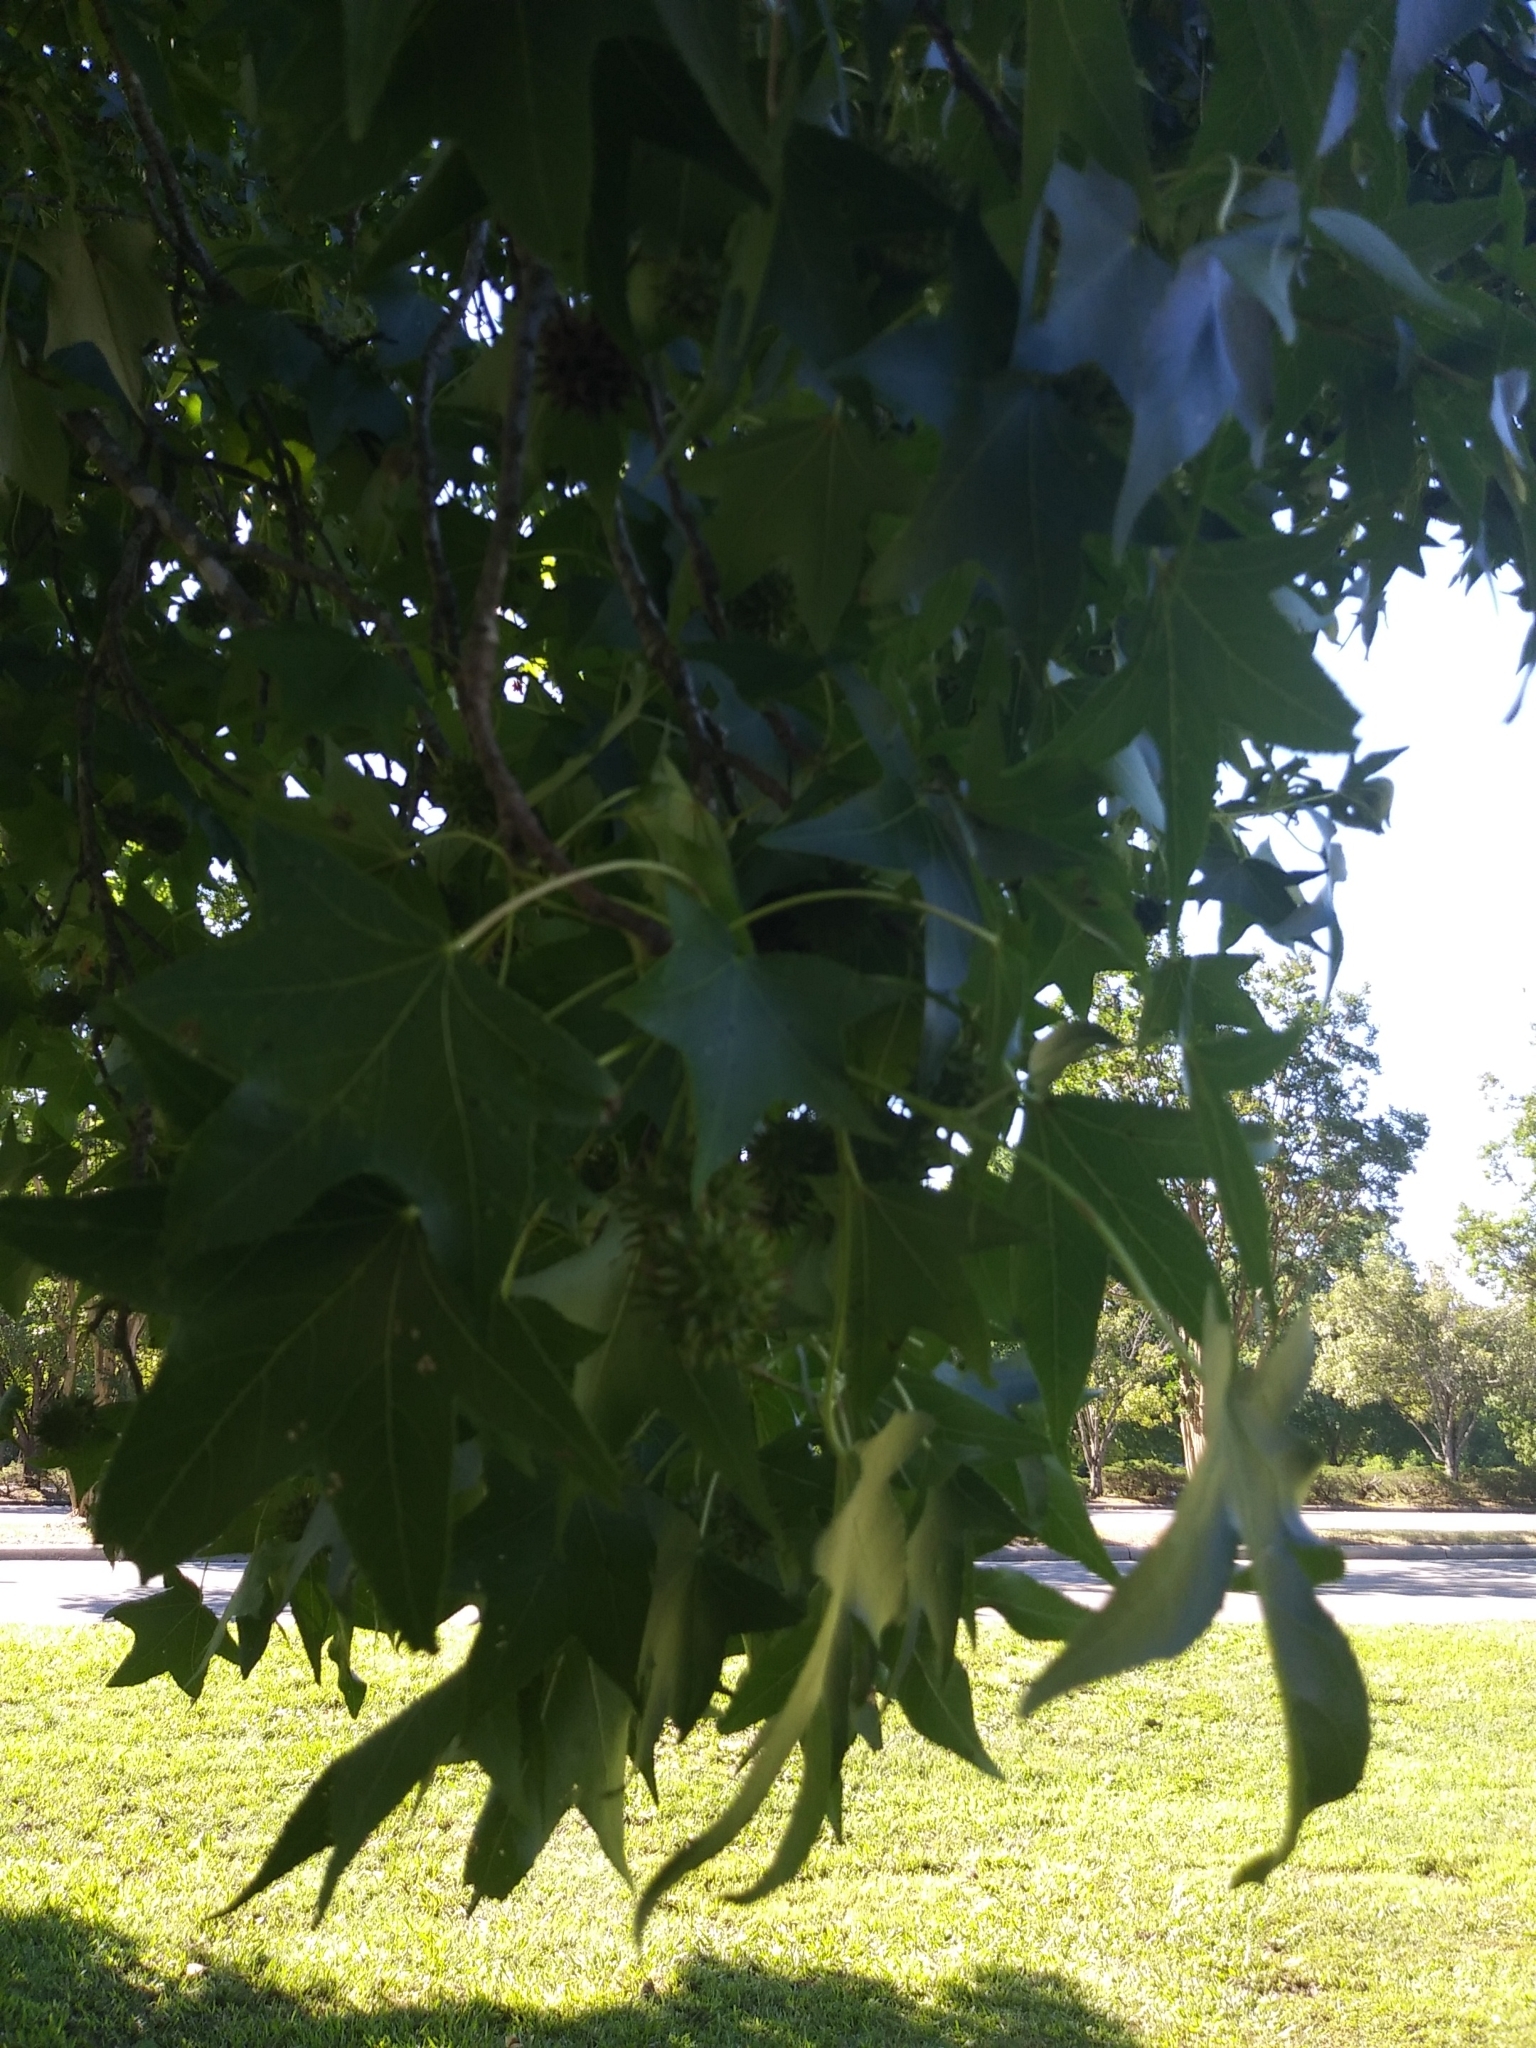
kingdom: Plantae
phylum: Tracheophyta
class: Magnoliopsida
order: Saxifragales
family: Altingiaceae
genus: Liquidambar
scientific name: Liquidambar styraciflua
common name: Sweet gum
